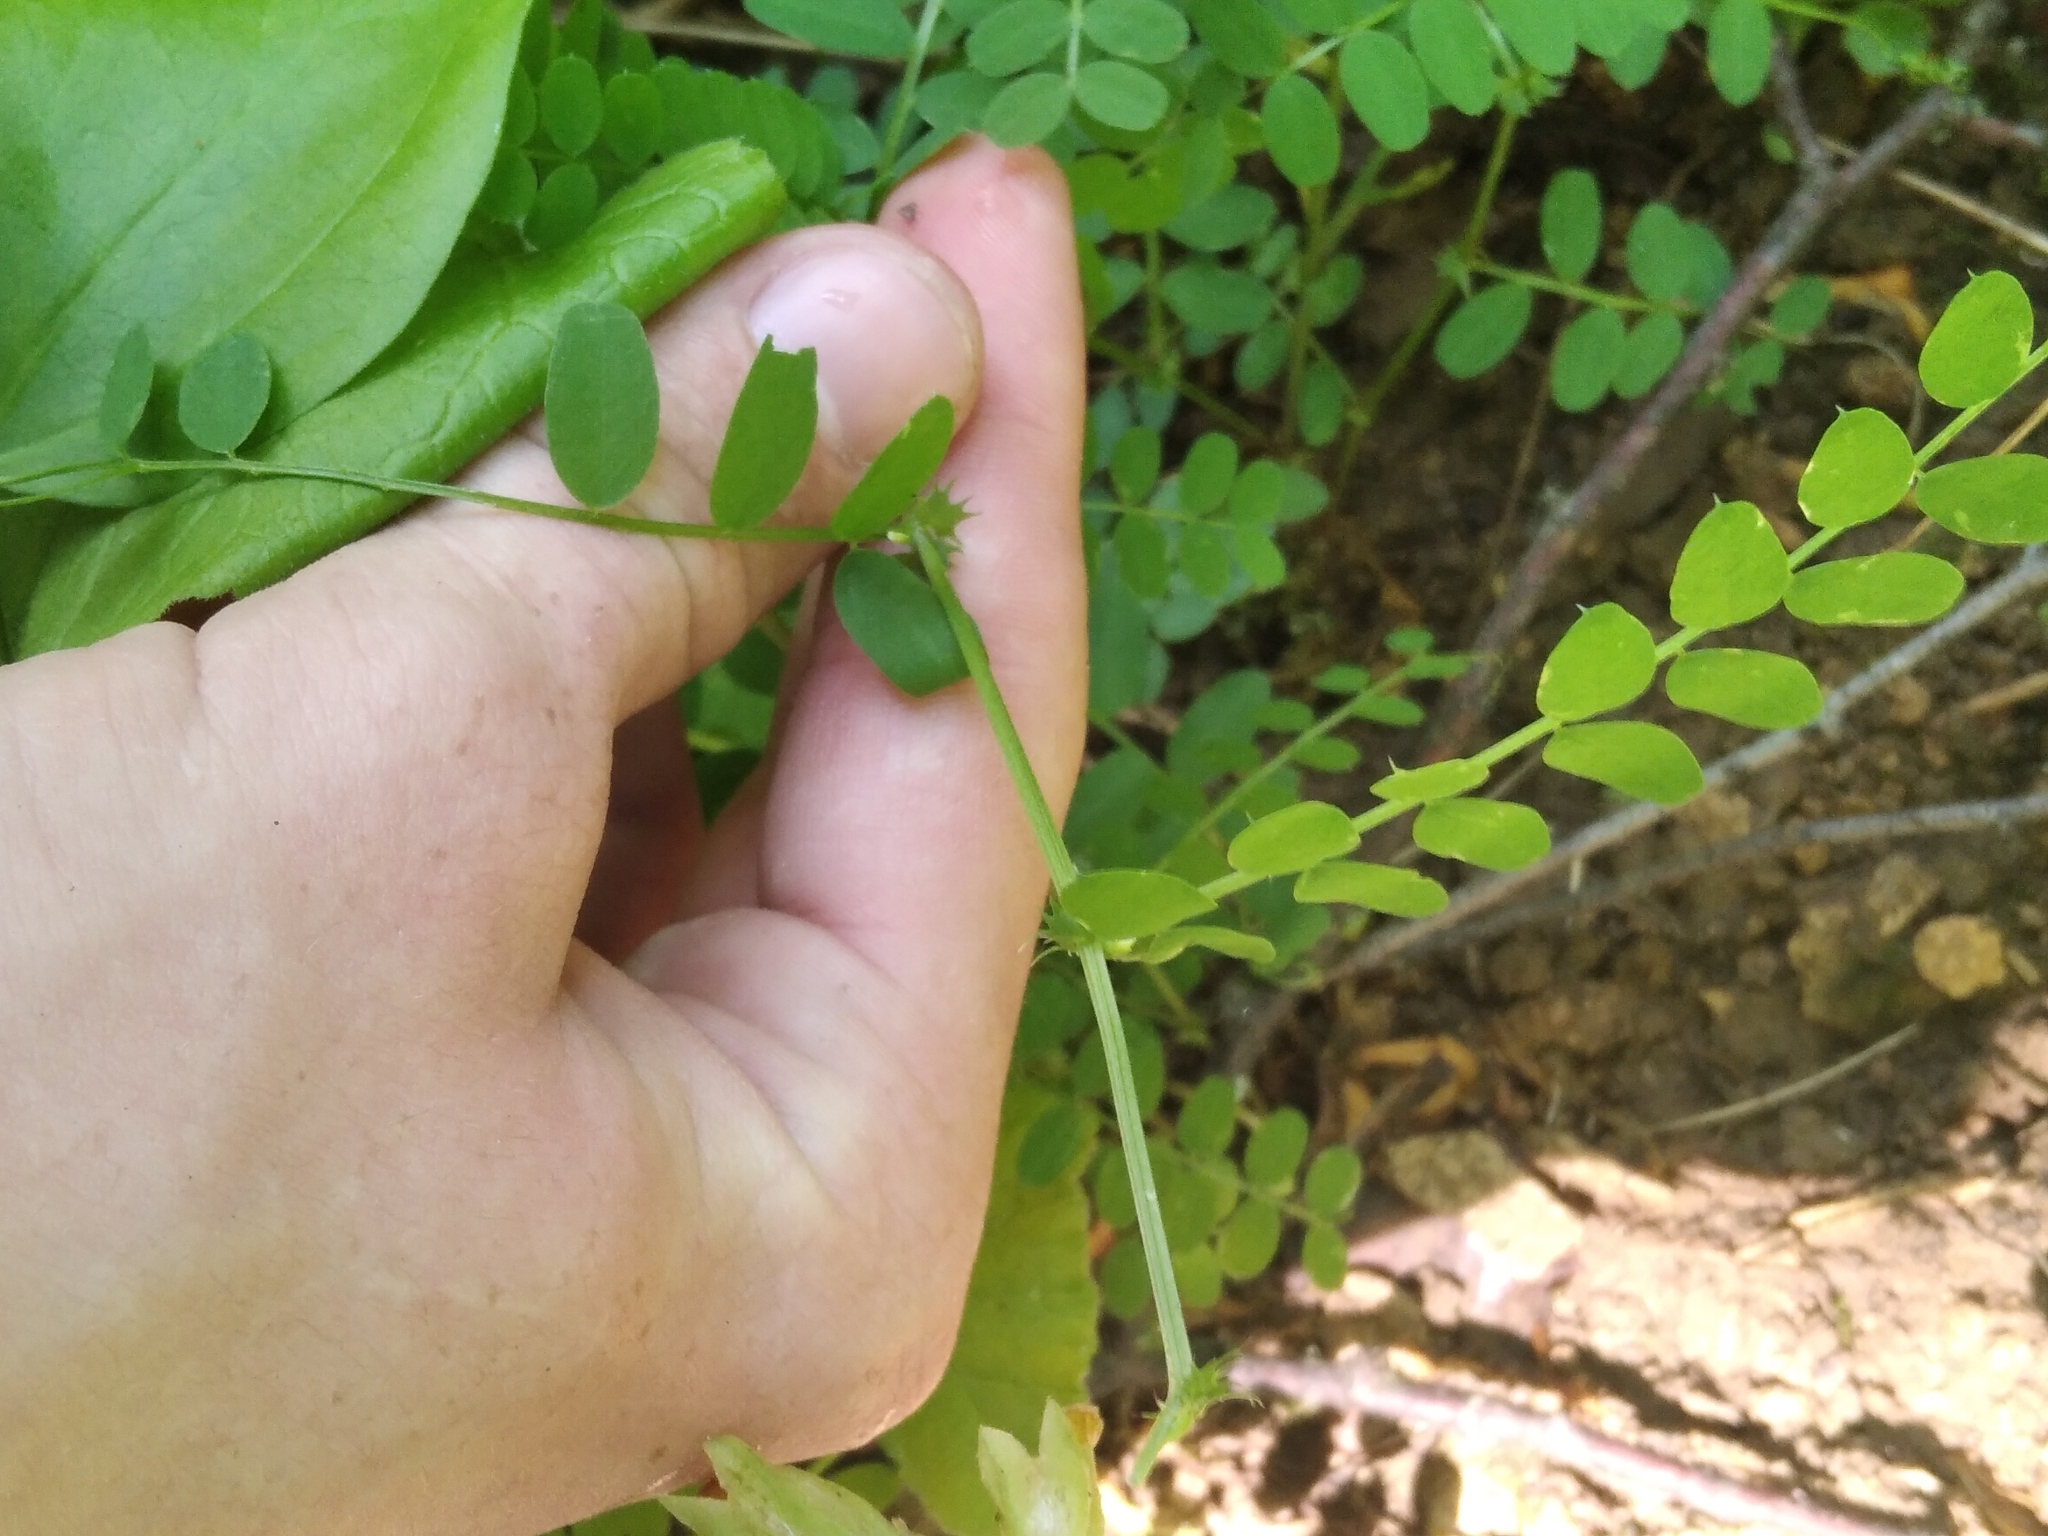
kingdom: Plantae
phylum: Tracheophyta
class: Magnoliopsida
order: Brassicales
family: Brassicaceae
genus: Cardamine
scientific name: Cardamine impatiens
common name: Narrow-leaved bitter-cress
